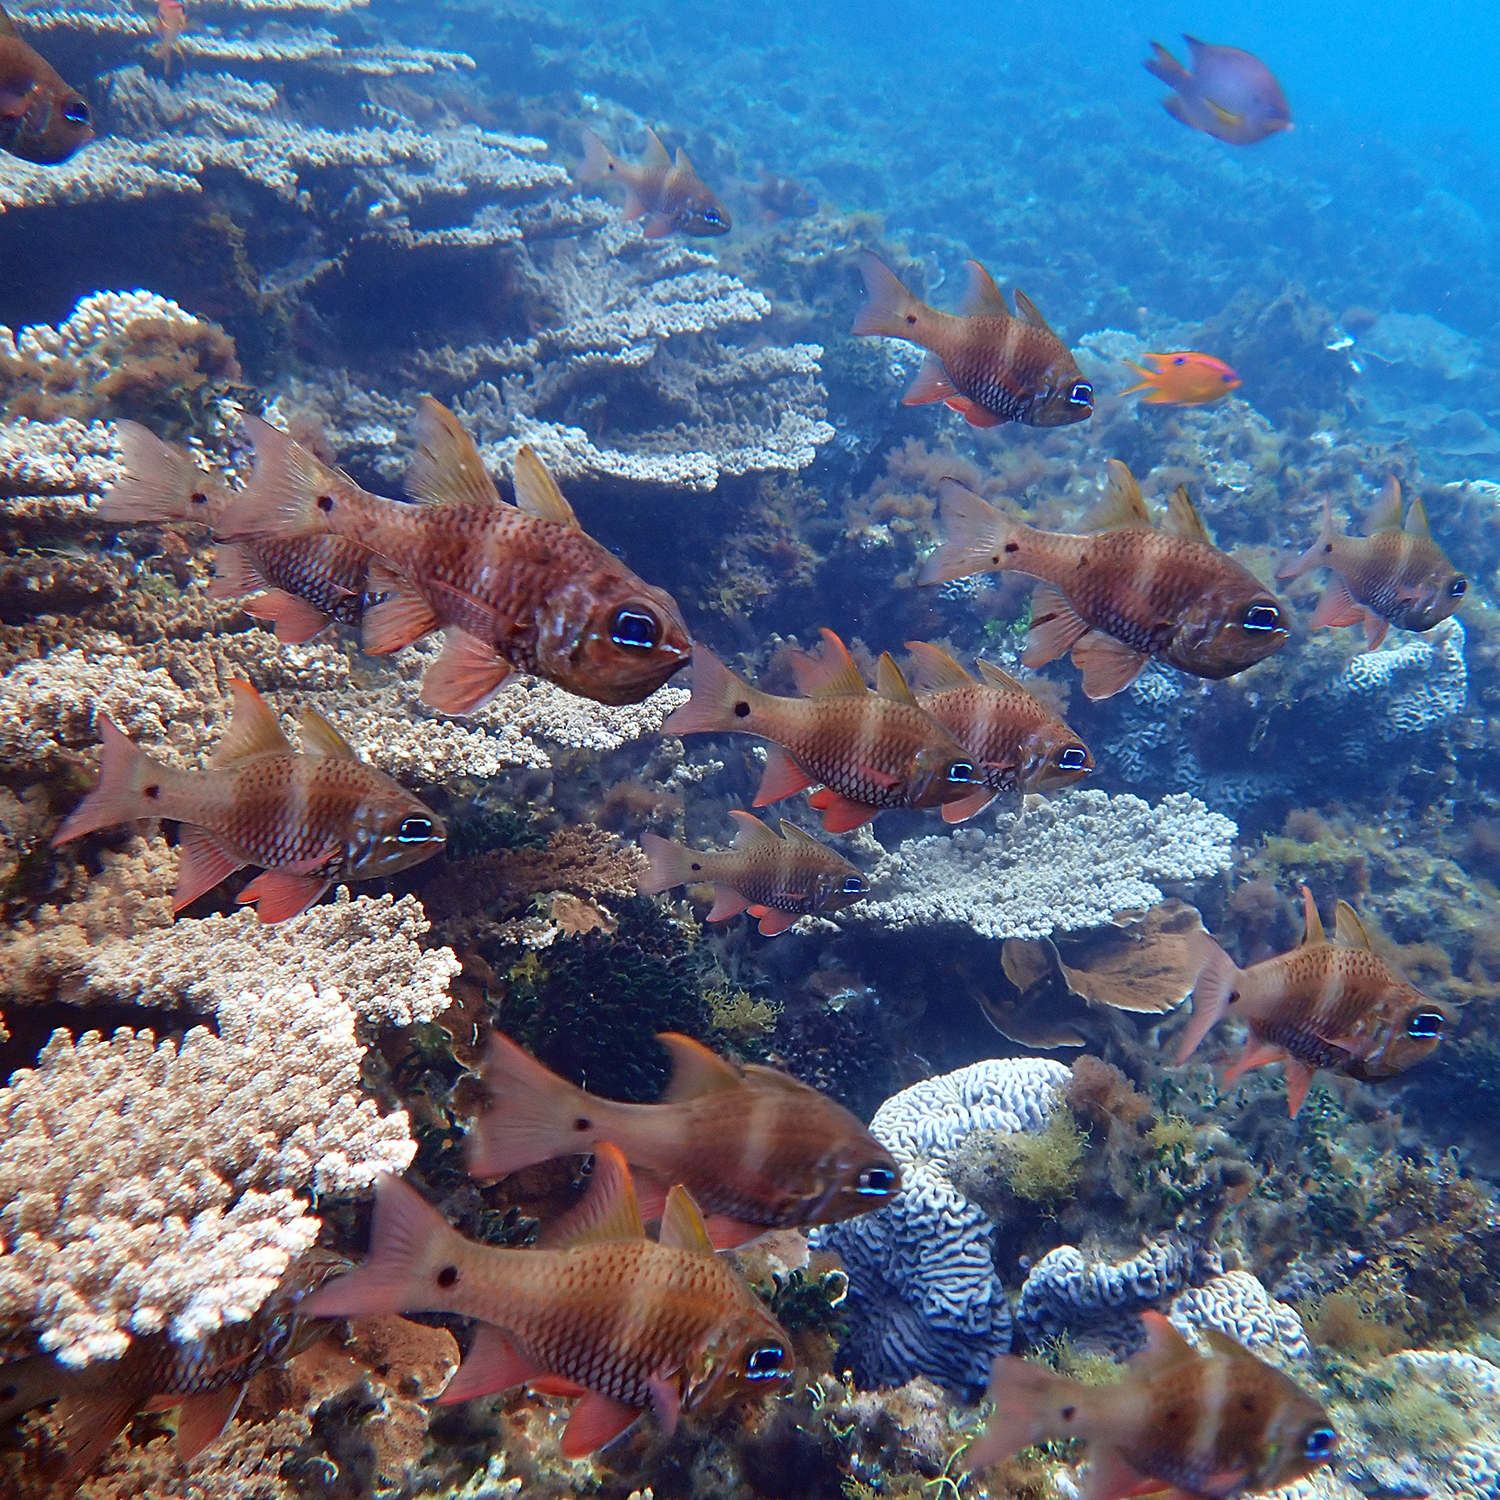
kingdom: Animalia
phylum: Chordata
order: Perciformes
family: Apogonidae
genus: Ostorhinchus
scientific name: Ostorhinchus norfolcensis
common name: Norfolk cardinalfish
